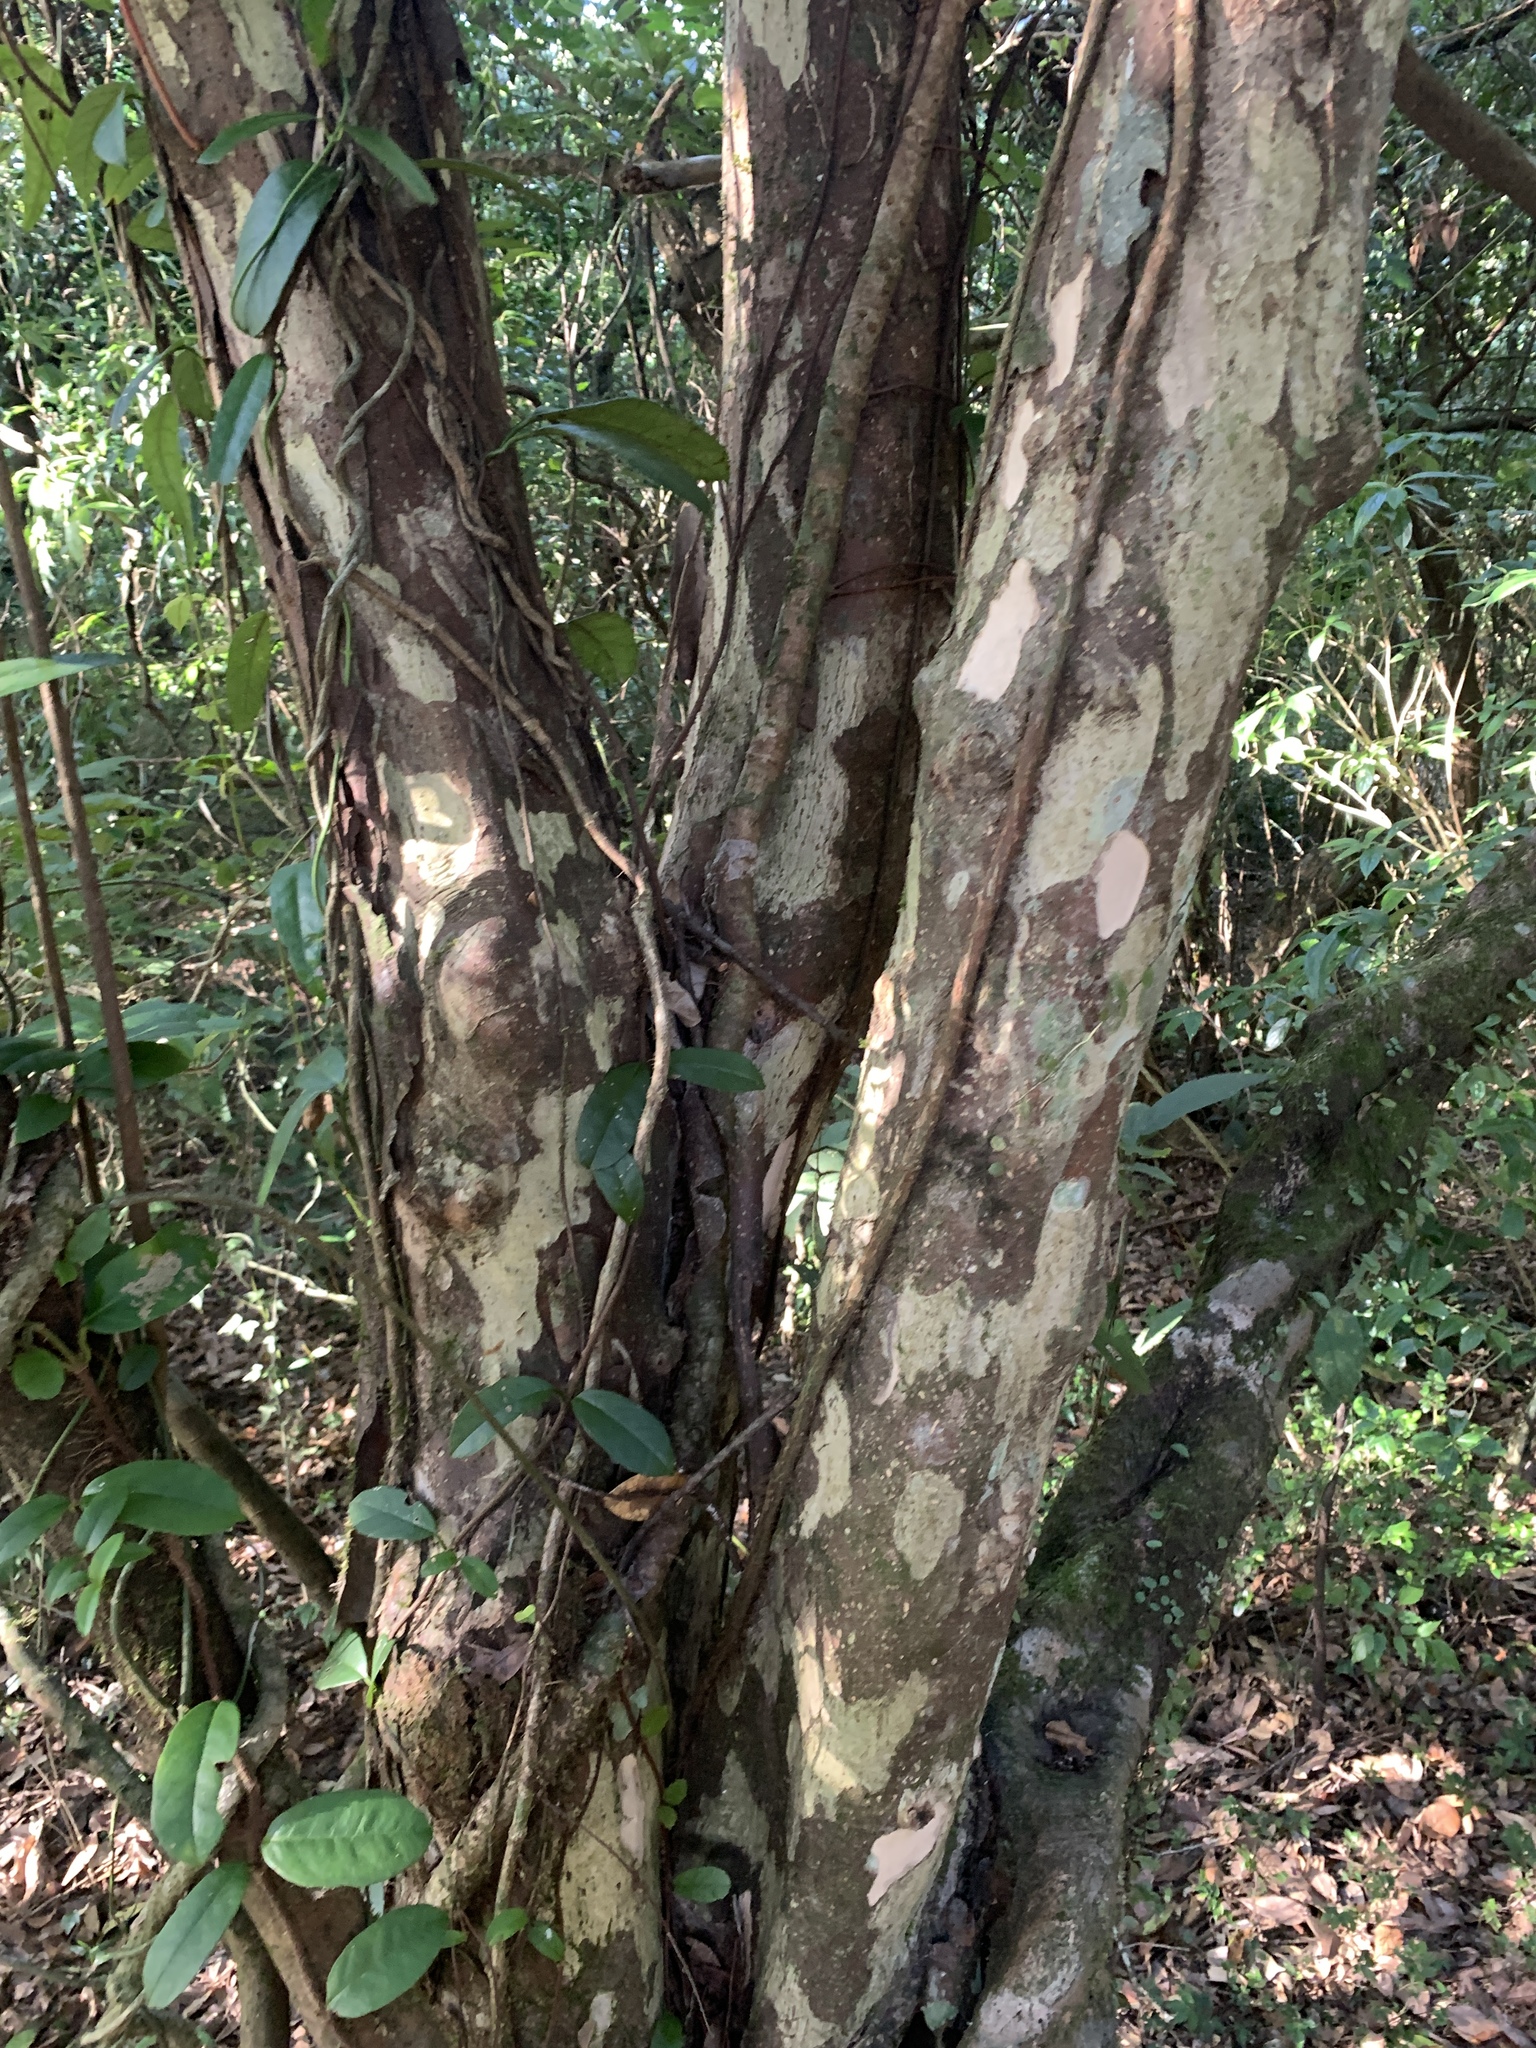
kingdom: Plantae
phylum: Tracheophyta
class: Magnoliopsida
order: Laurales
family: Lauraceae
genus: Litsea
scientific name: Litsea coreana
